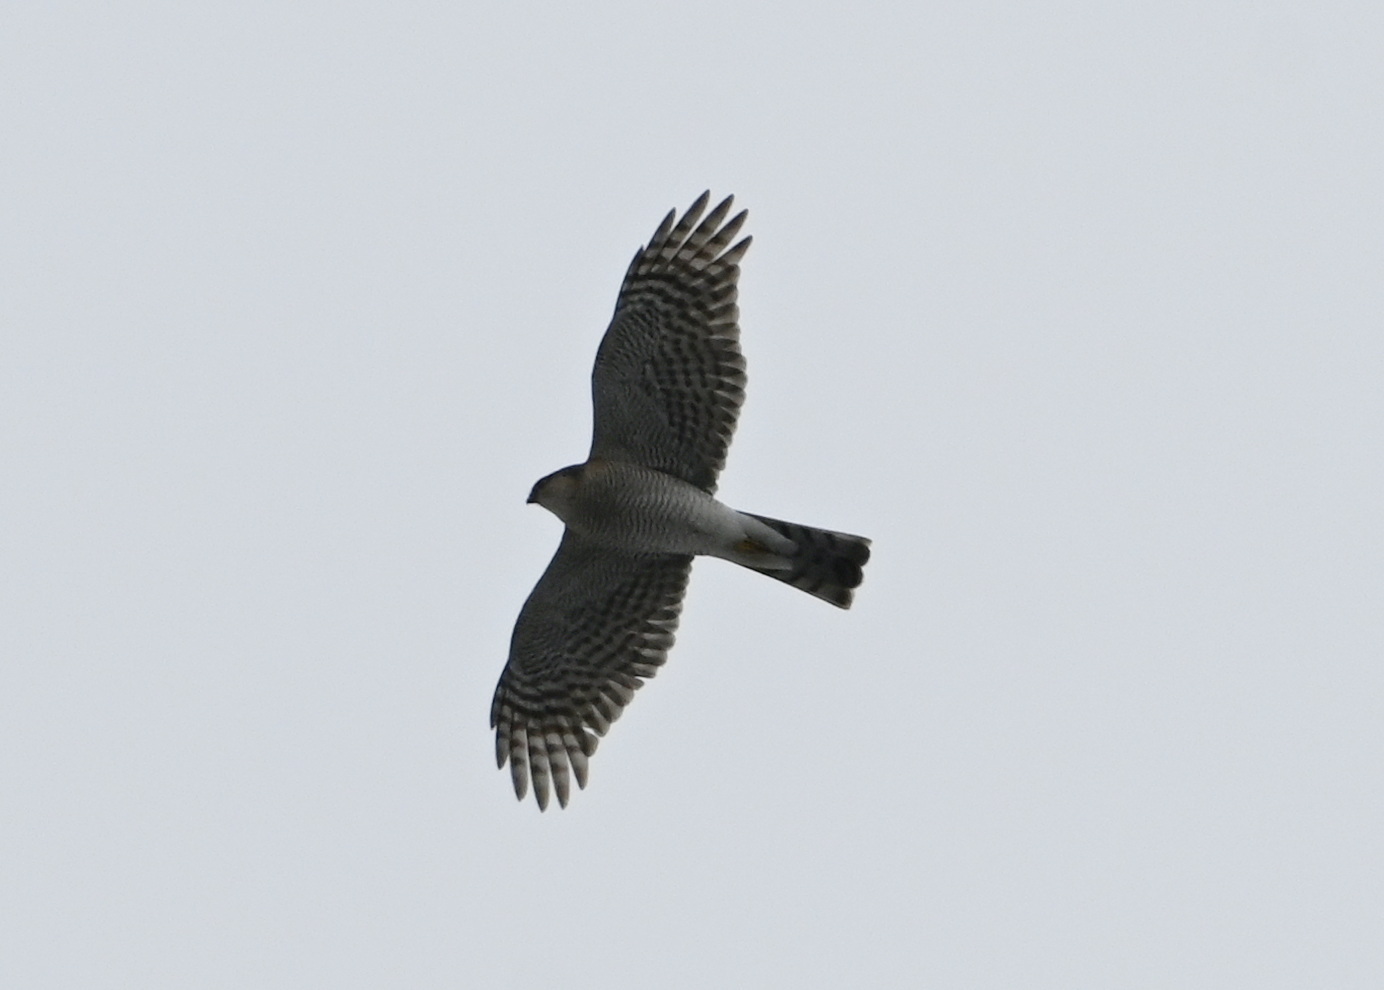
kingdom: Animalia
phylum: Chordata
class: Aves
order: Accipitriformes
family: Accipitridae
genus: Accipiter
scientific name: Accipiter nisus
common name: Eurasian sparrowhawk
